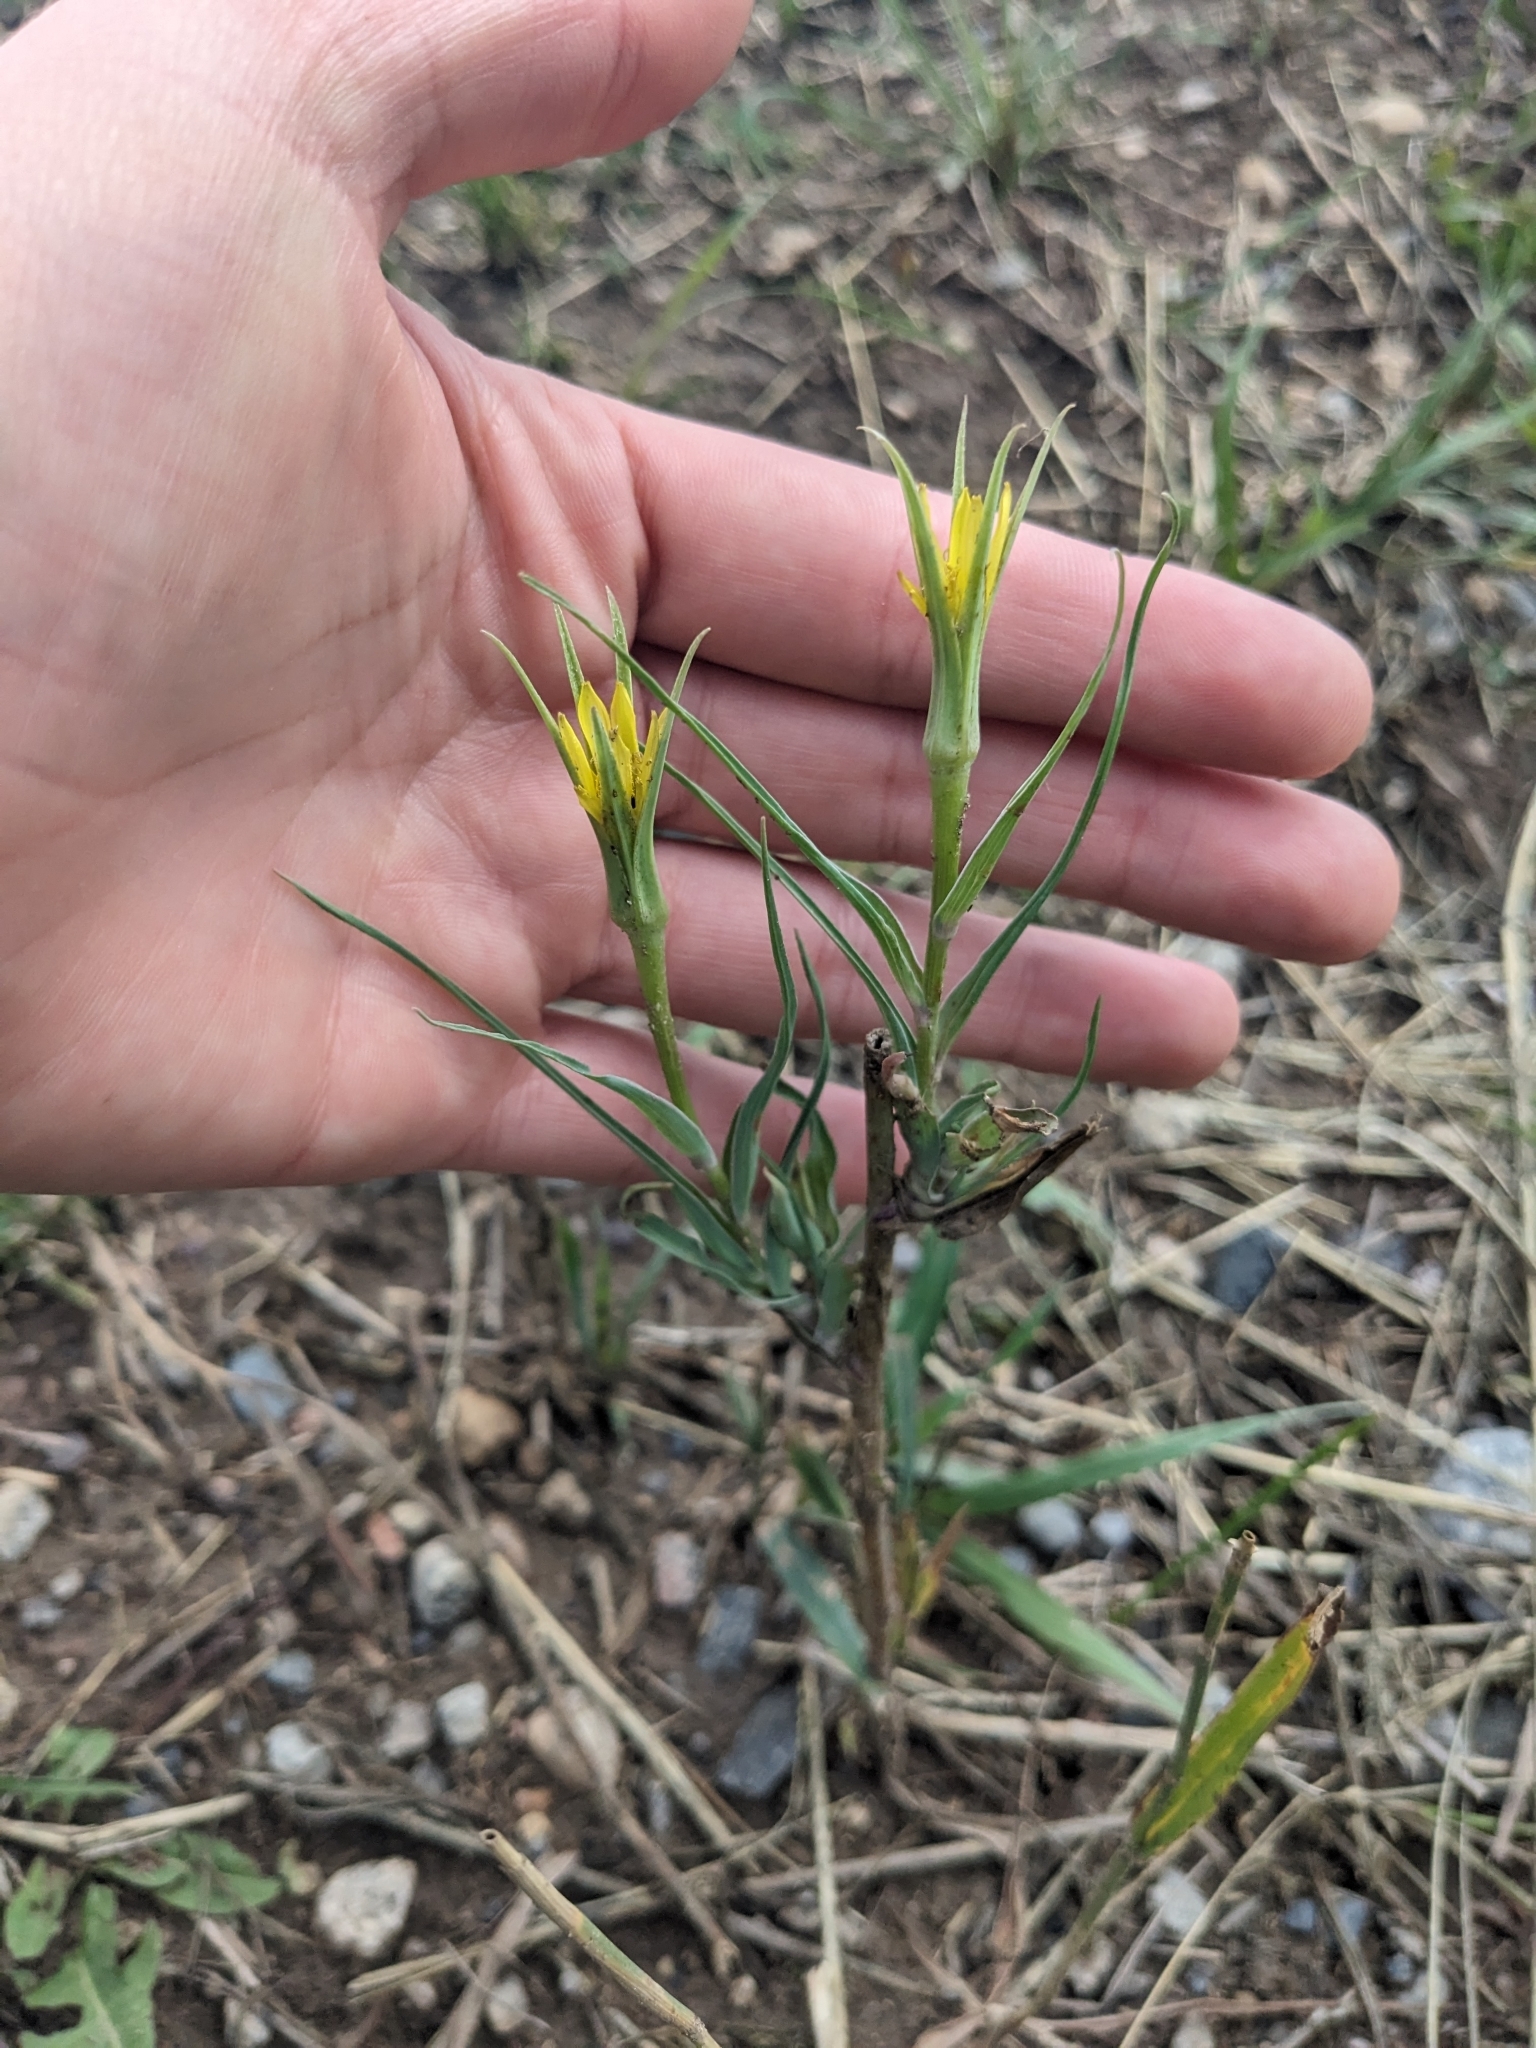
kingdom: Plantae
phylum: Tracheophyta
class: Magnoliopsida
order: Asterales
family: Asteraceae
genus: Tragopogon
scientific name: Tragopogon dubius
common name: Yellow salsify
